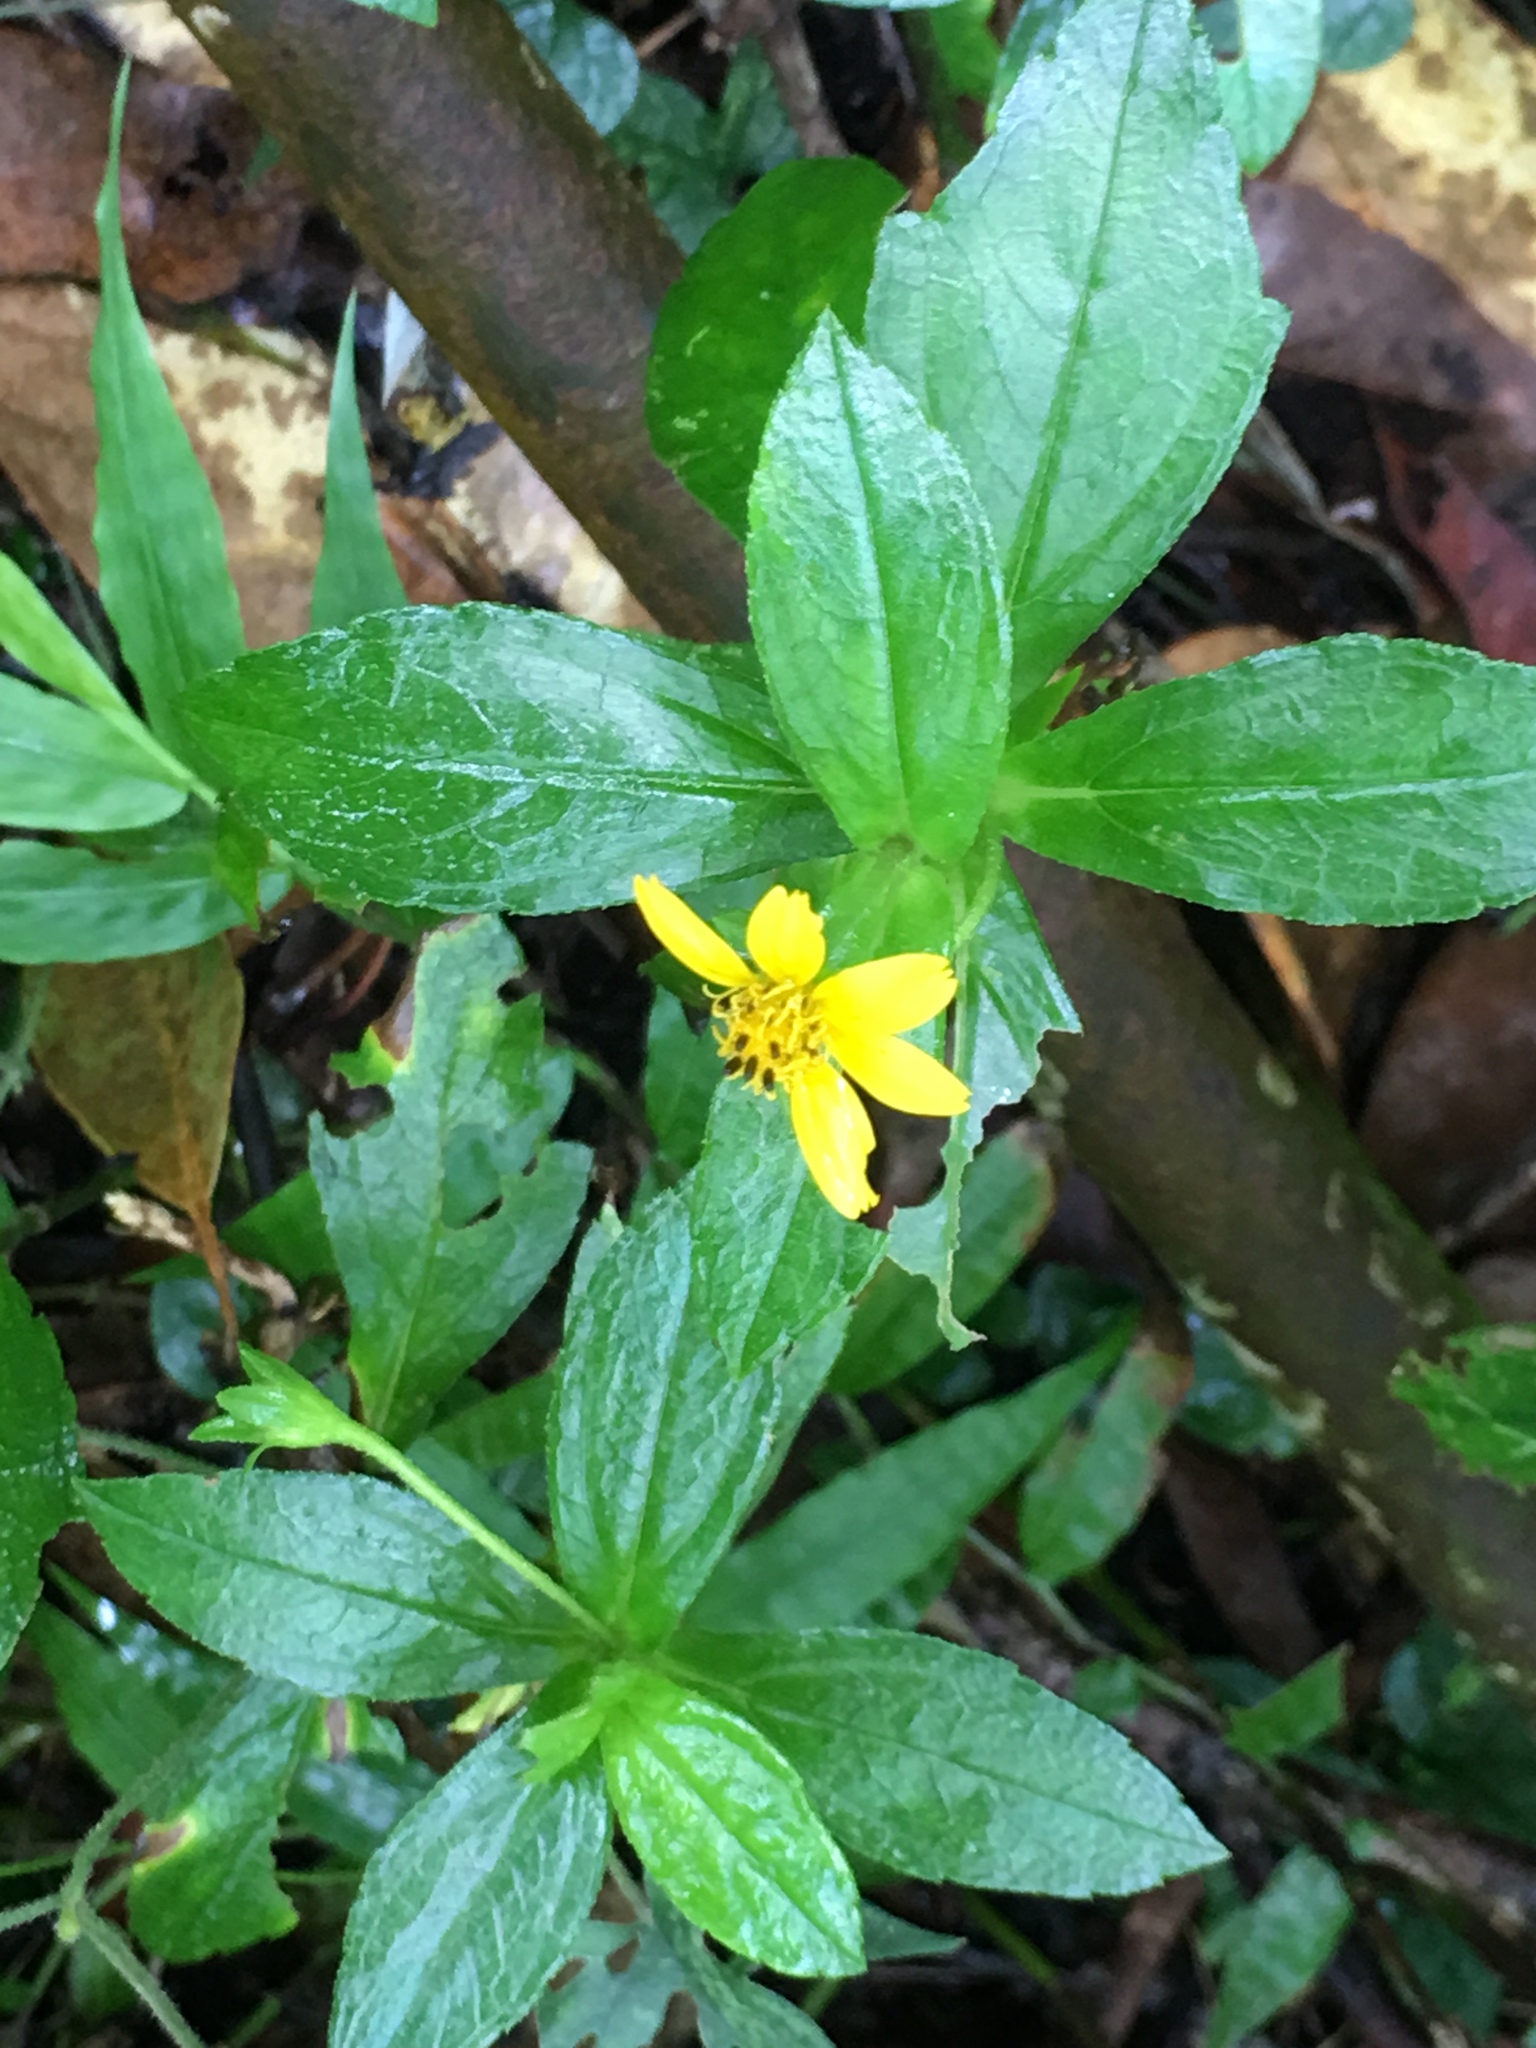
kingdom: Plantae
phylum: Tracheophyta
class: Magnoliopsida
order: Asterales
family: Asteraceae
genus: Sphagneticola
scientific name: Sphagneticola trilobata
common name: Bay biscayne creeping-oxeye
